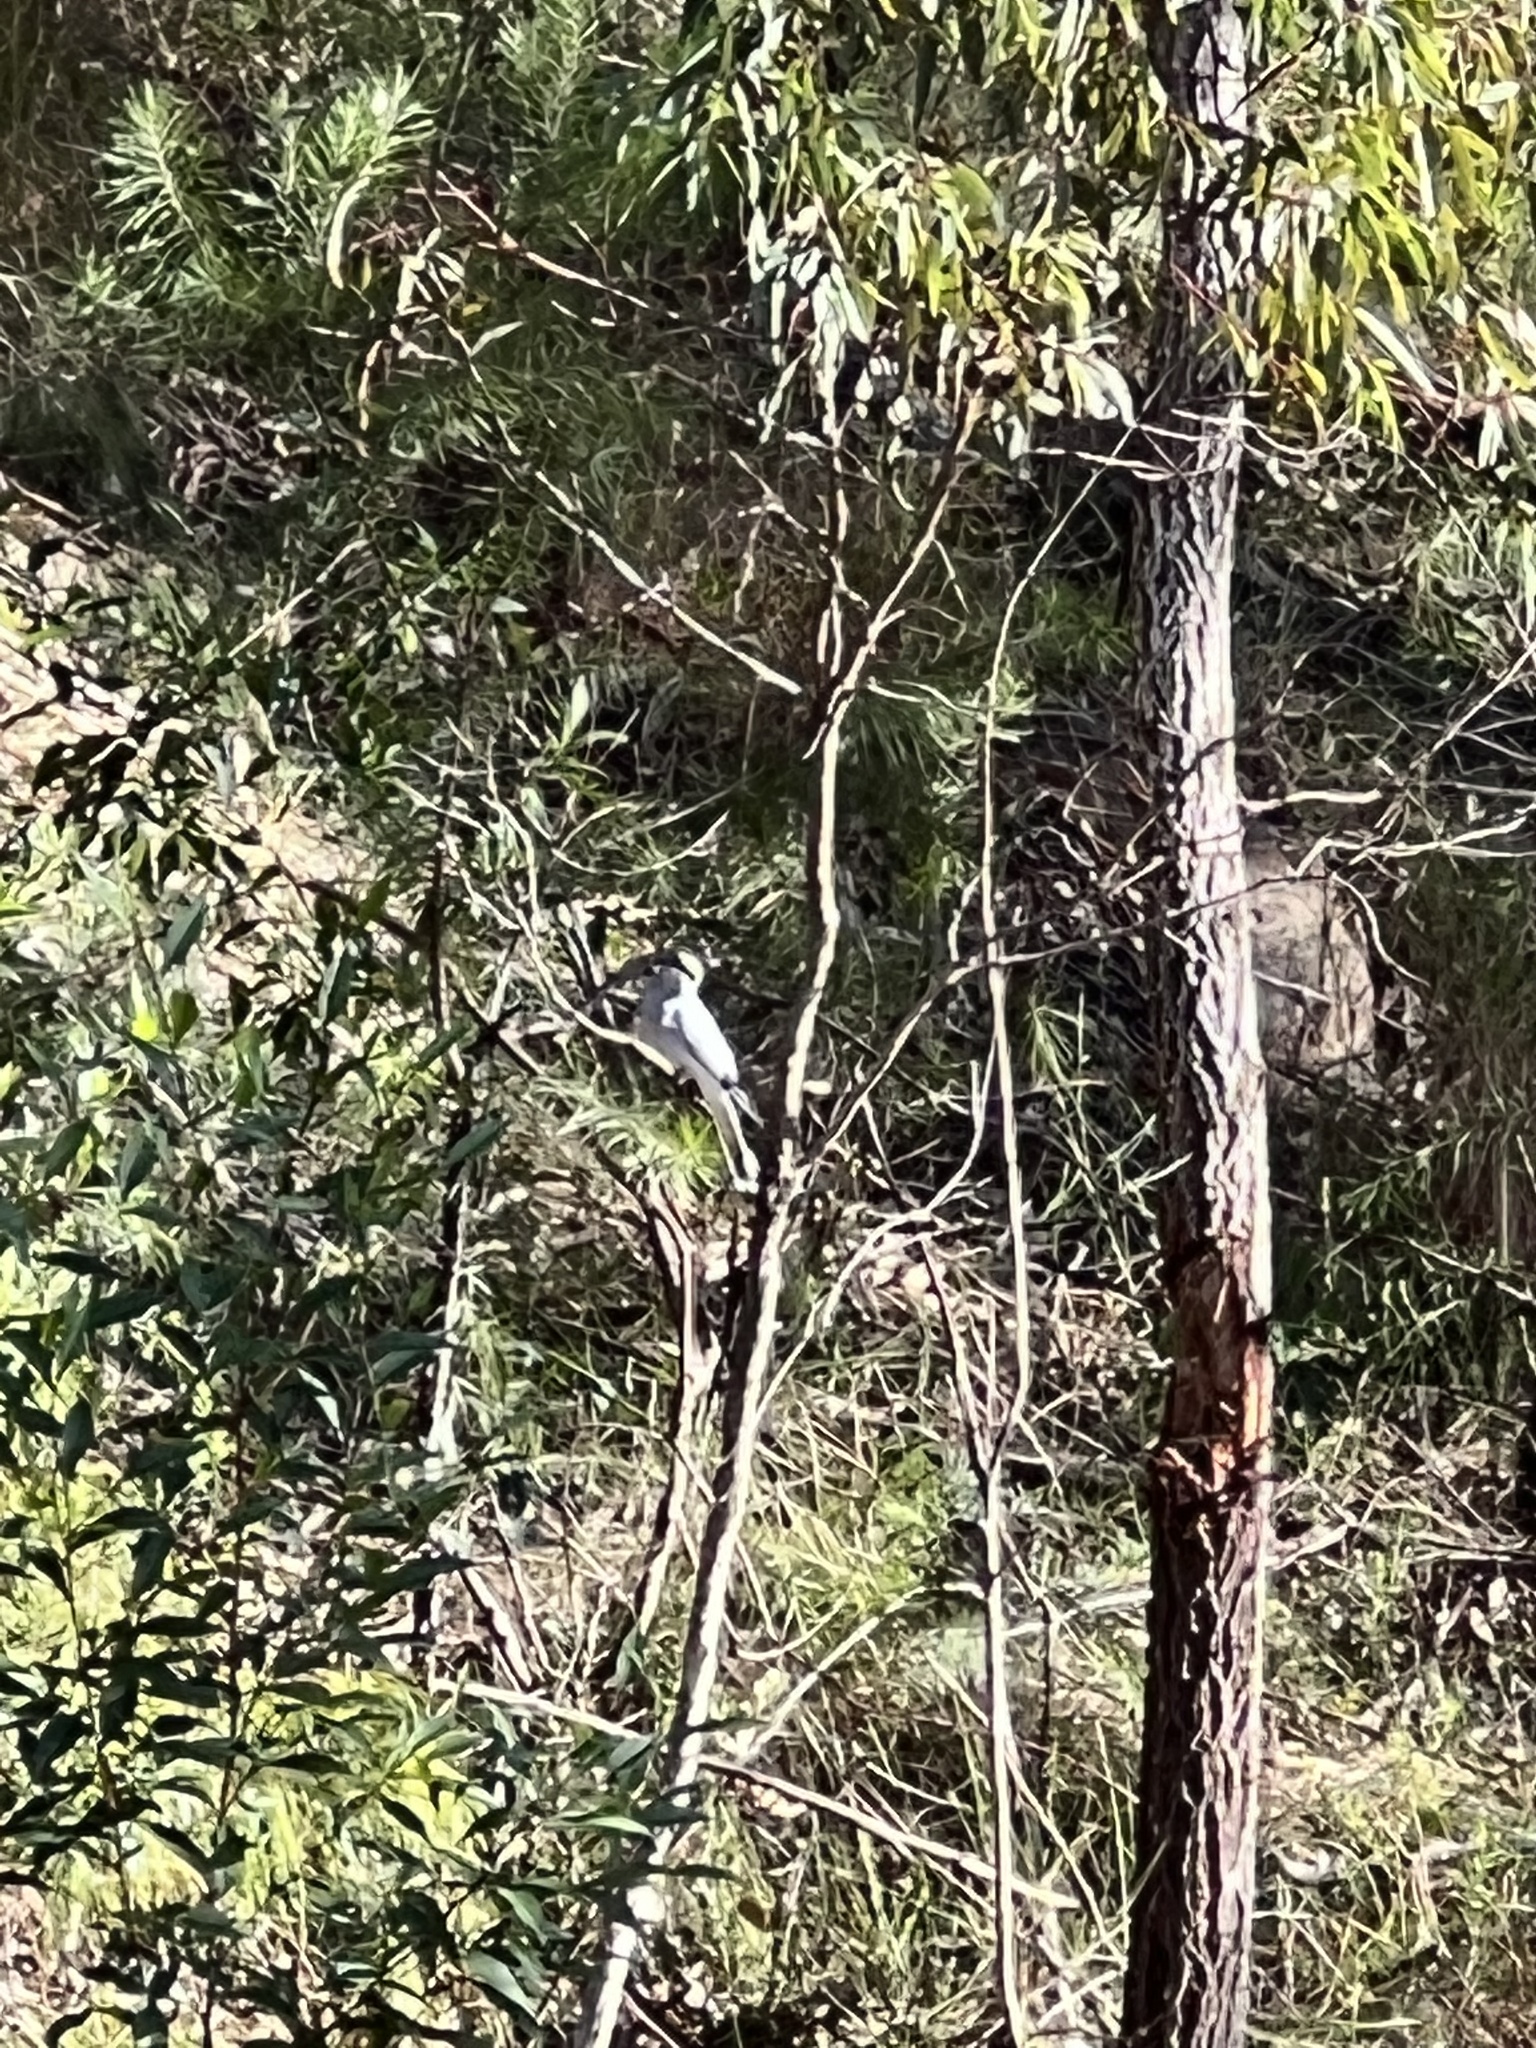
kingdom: Animalia
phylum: Chordata
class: Aves
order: Passeriformes
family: Campephagidae
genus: Coracina
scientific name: Coracina papuensis
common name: White-bellied cuckooshrike
